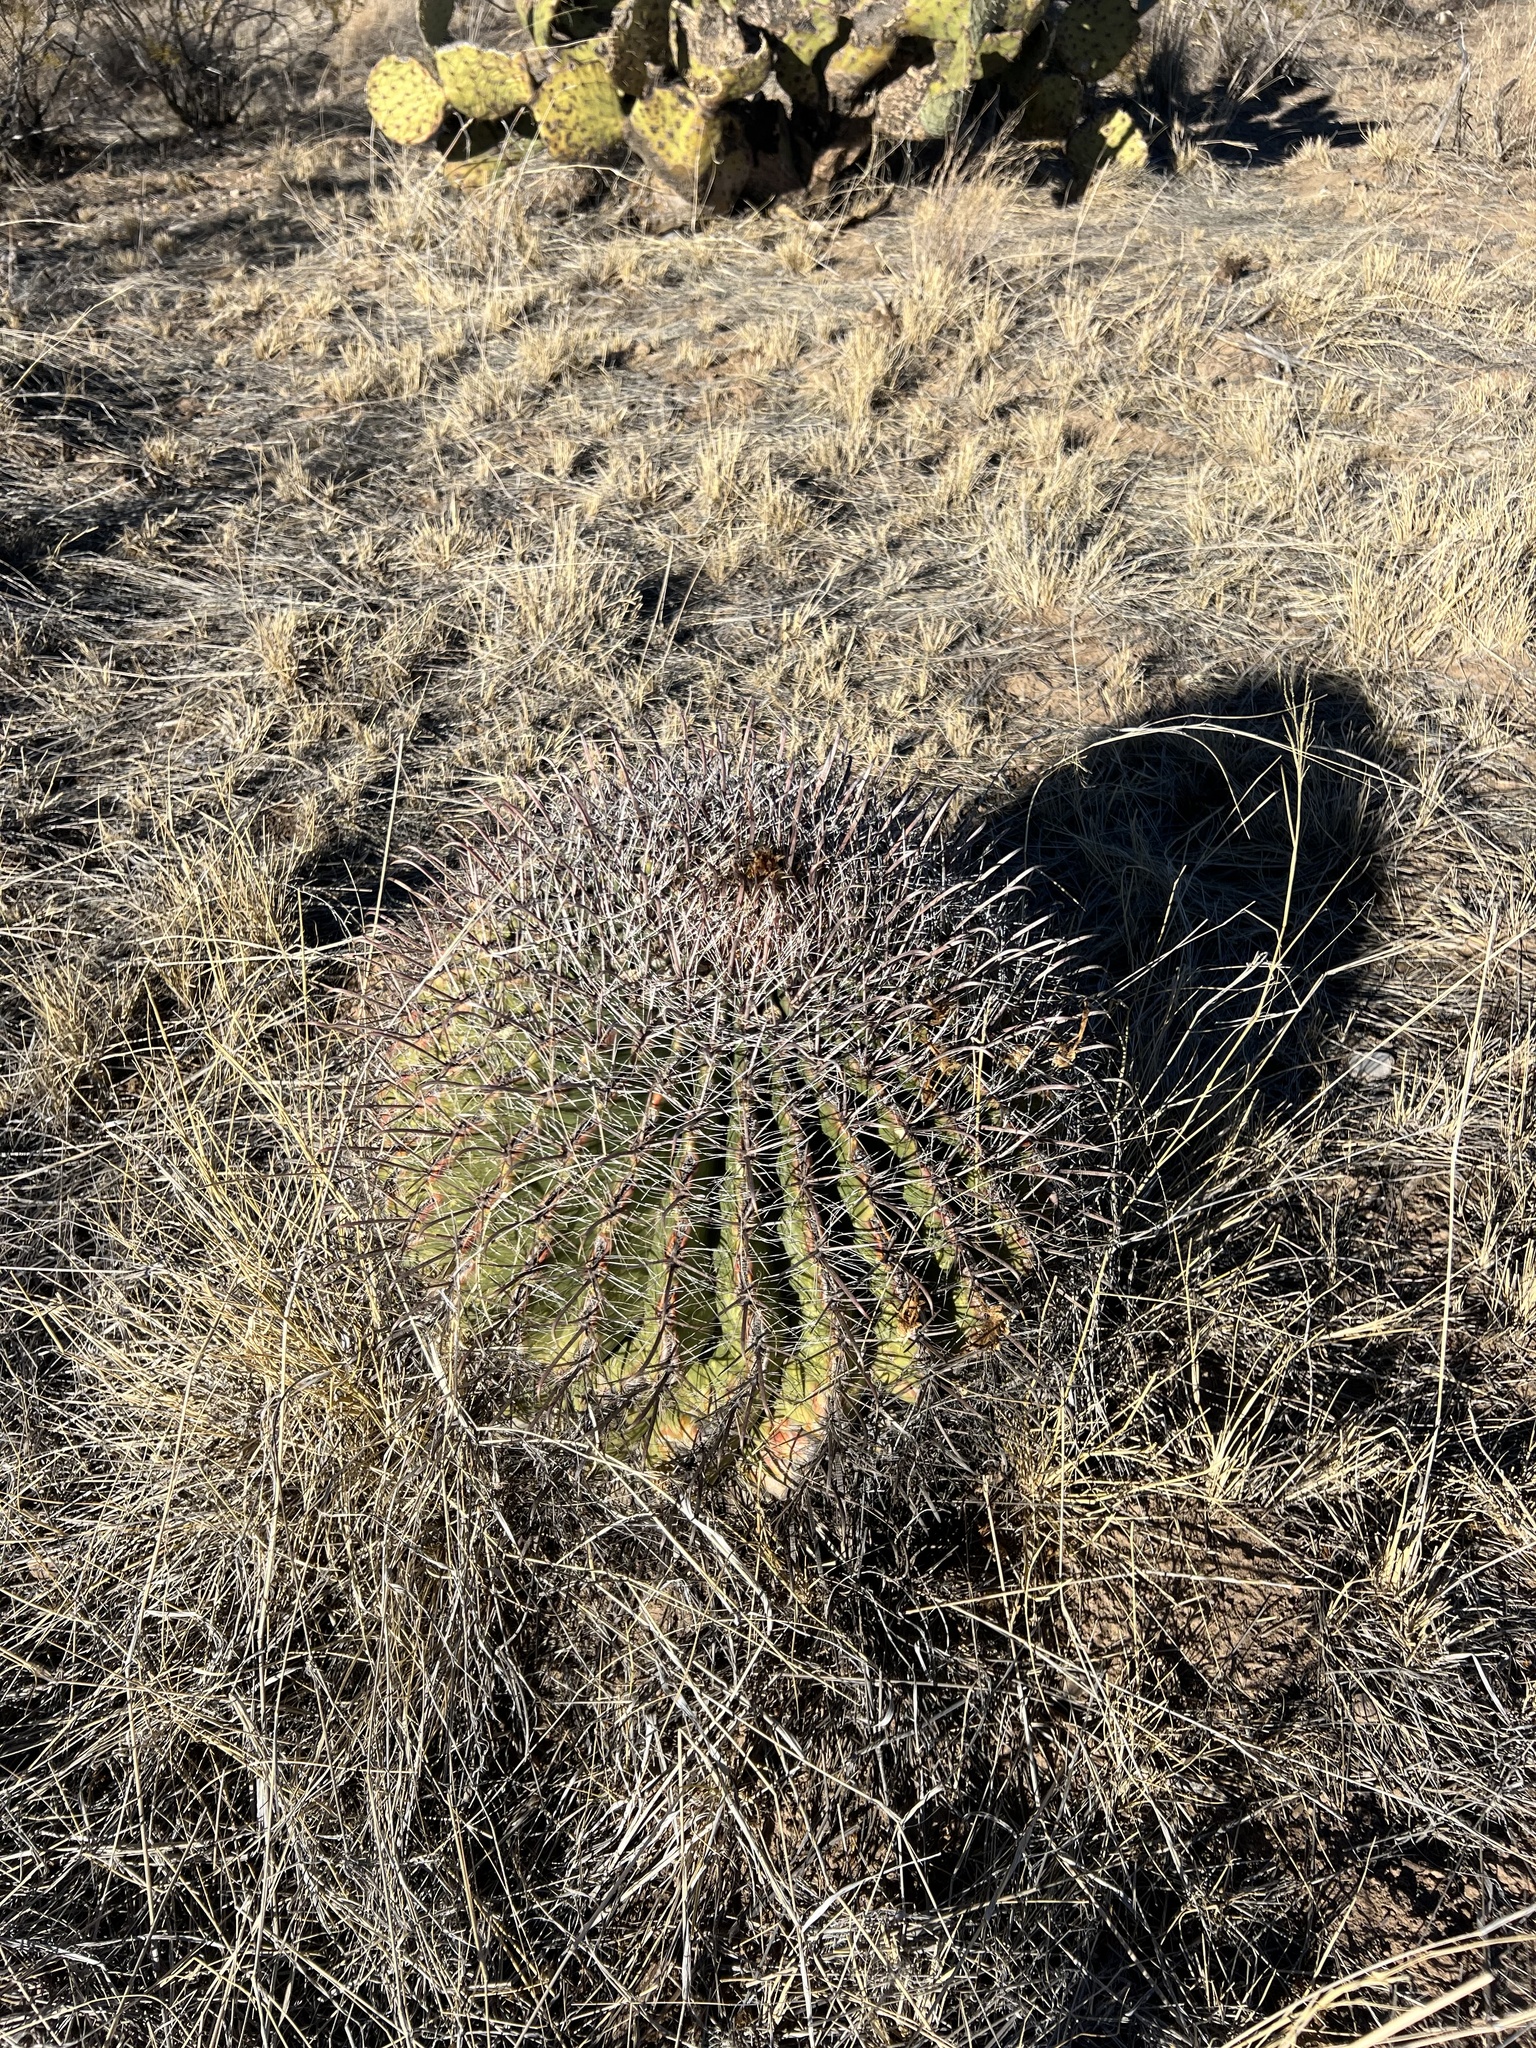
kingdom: Plantae
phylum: Tracheophyta
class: Magnoliopsida
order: Caryophyllales
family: Cactaceae
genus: Ferocactus
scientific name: Ferocactus wislizeni
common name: Candy barrel cactus
